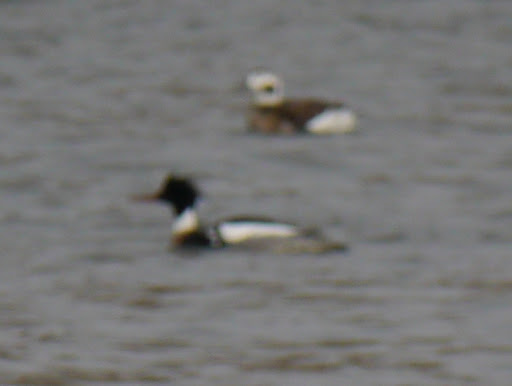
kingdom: Animalia
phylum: Chordata
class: Aves
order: Anseriformes
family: Anatidae
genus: Mergus
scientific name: Mergus serrator
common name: Red-breasted merganser
